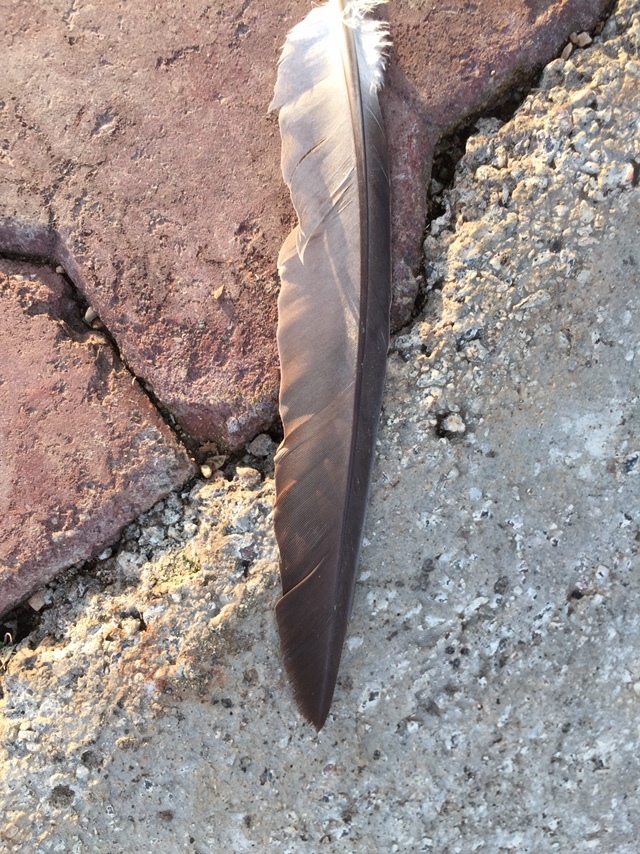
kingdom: Animalia
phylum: Chordata
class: Aves
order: Columbiformes
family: Columbidae
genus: Columba
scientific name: Columba livia
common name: Rock pigeon
